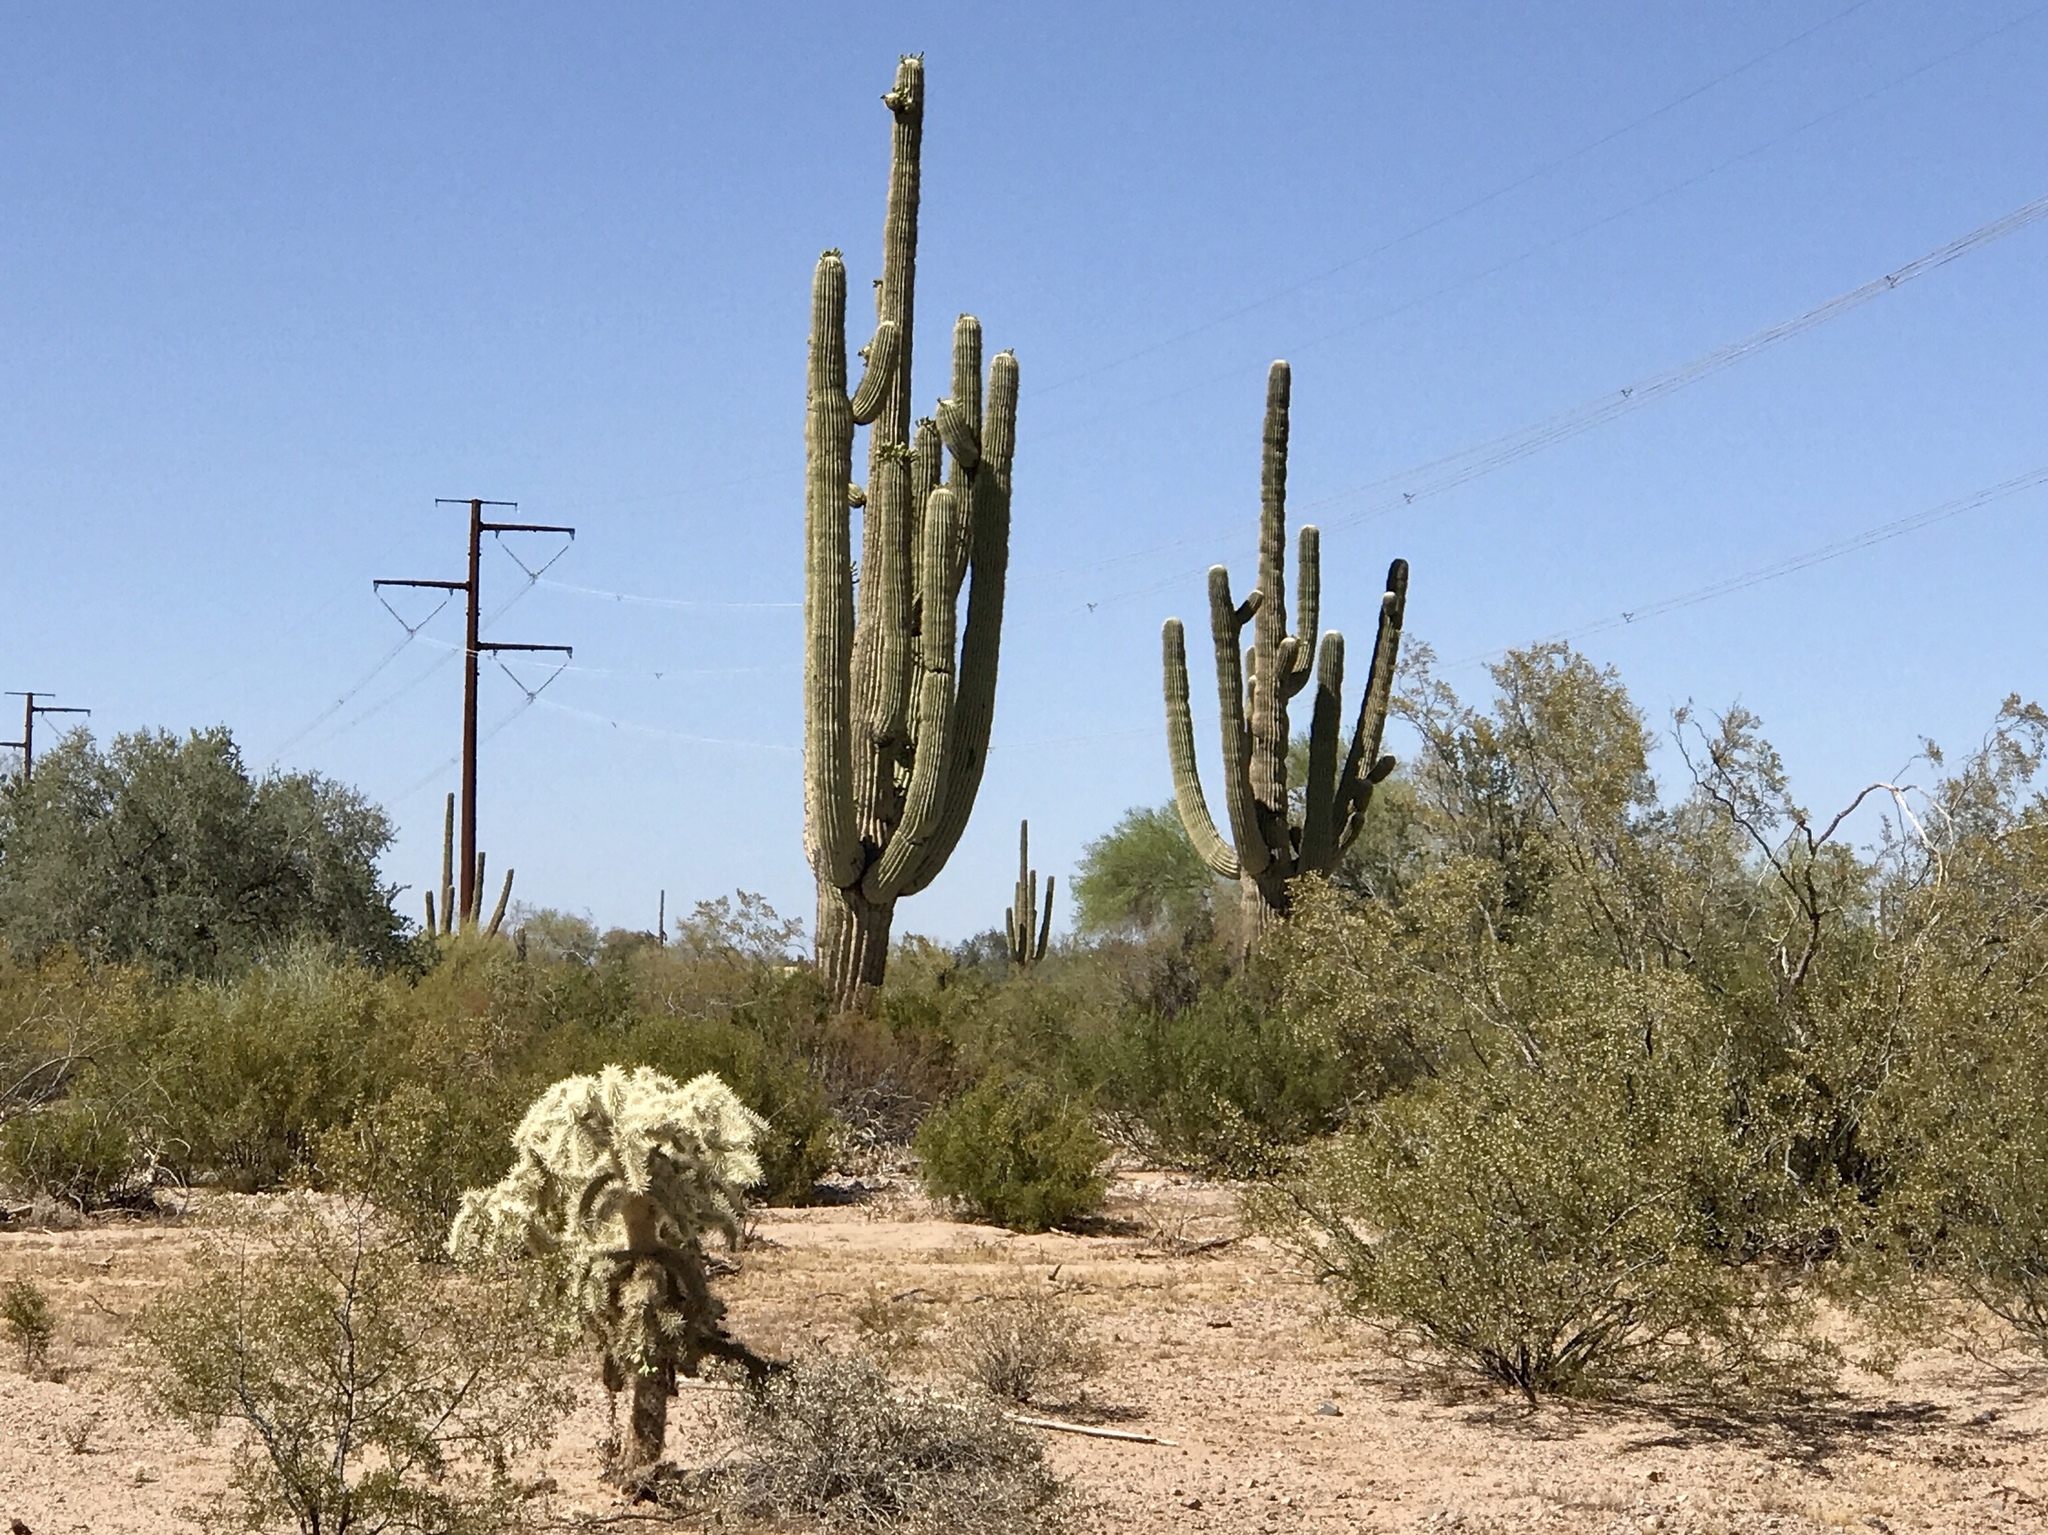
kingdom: Plantae
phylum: Tracheophyta
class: Magnoliopsida
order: Caryophyllales
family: Cactaceae
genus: Carnegiea
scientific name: Carnegiea gigantea
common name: Saguaro
